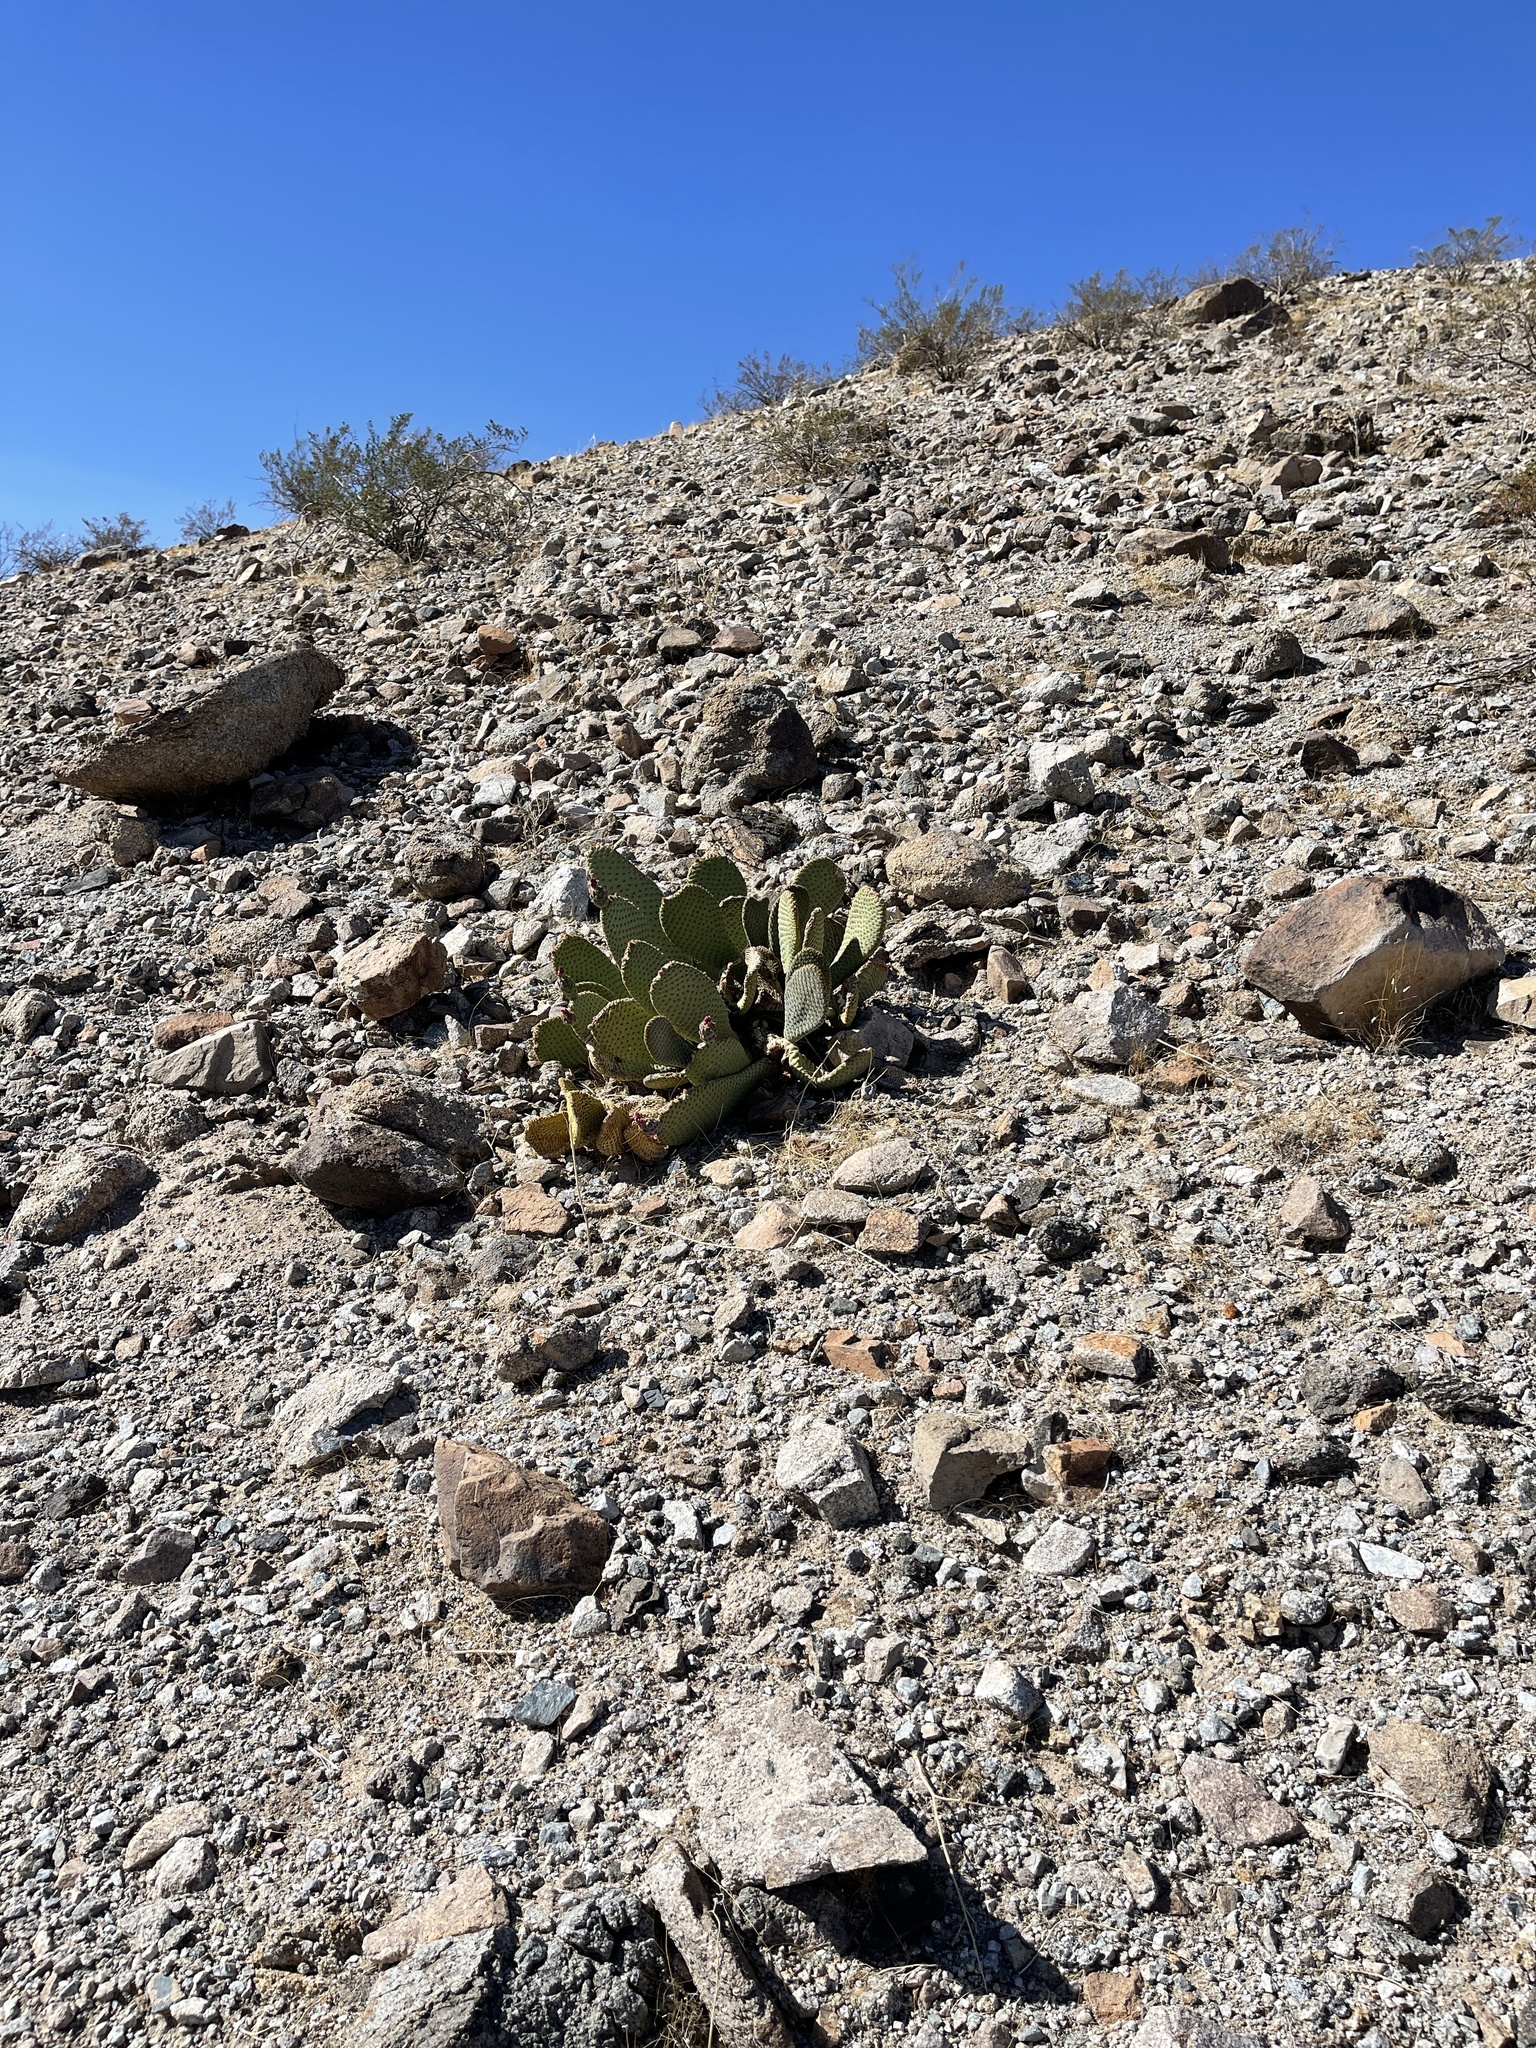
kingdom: Plantae
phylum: Tracheophyta
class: Magnoliopsida
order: Caryophyllales
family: Cactaceae
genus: Opuntia
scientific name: Opuntia basilaris
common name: Beavertail prickly-pear
